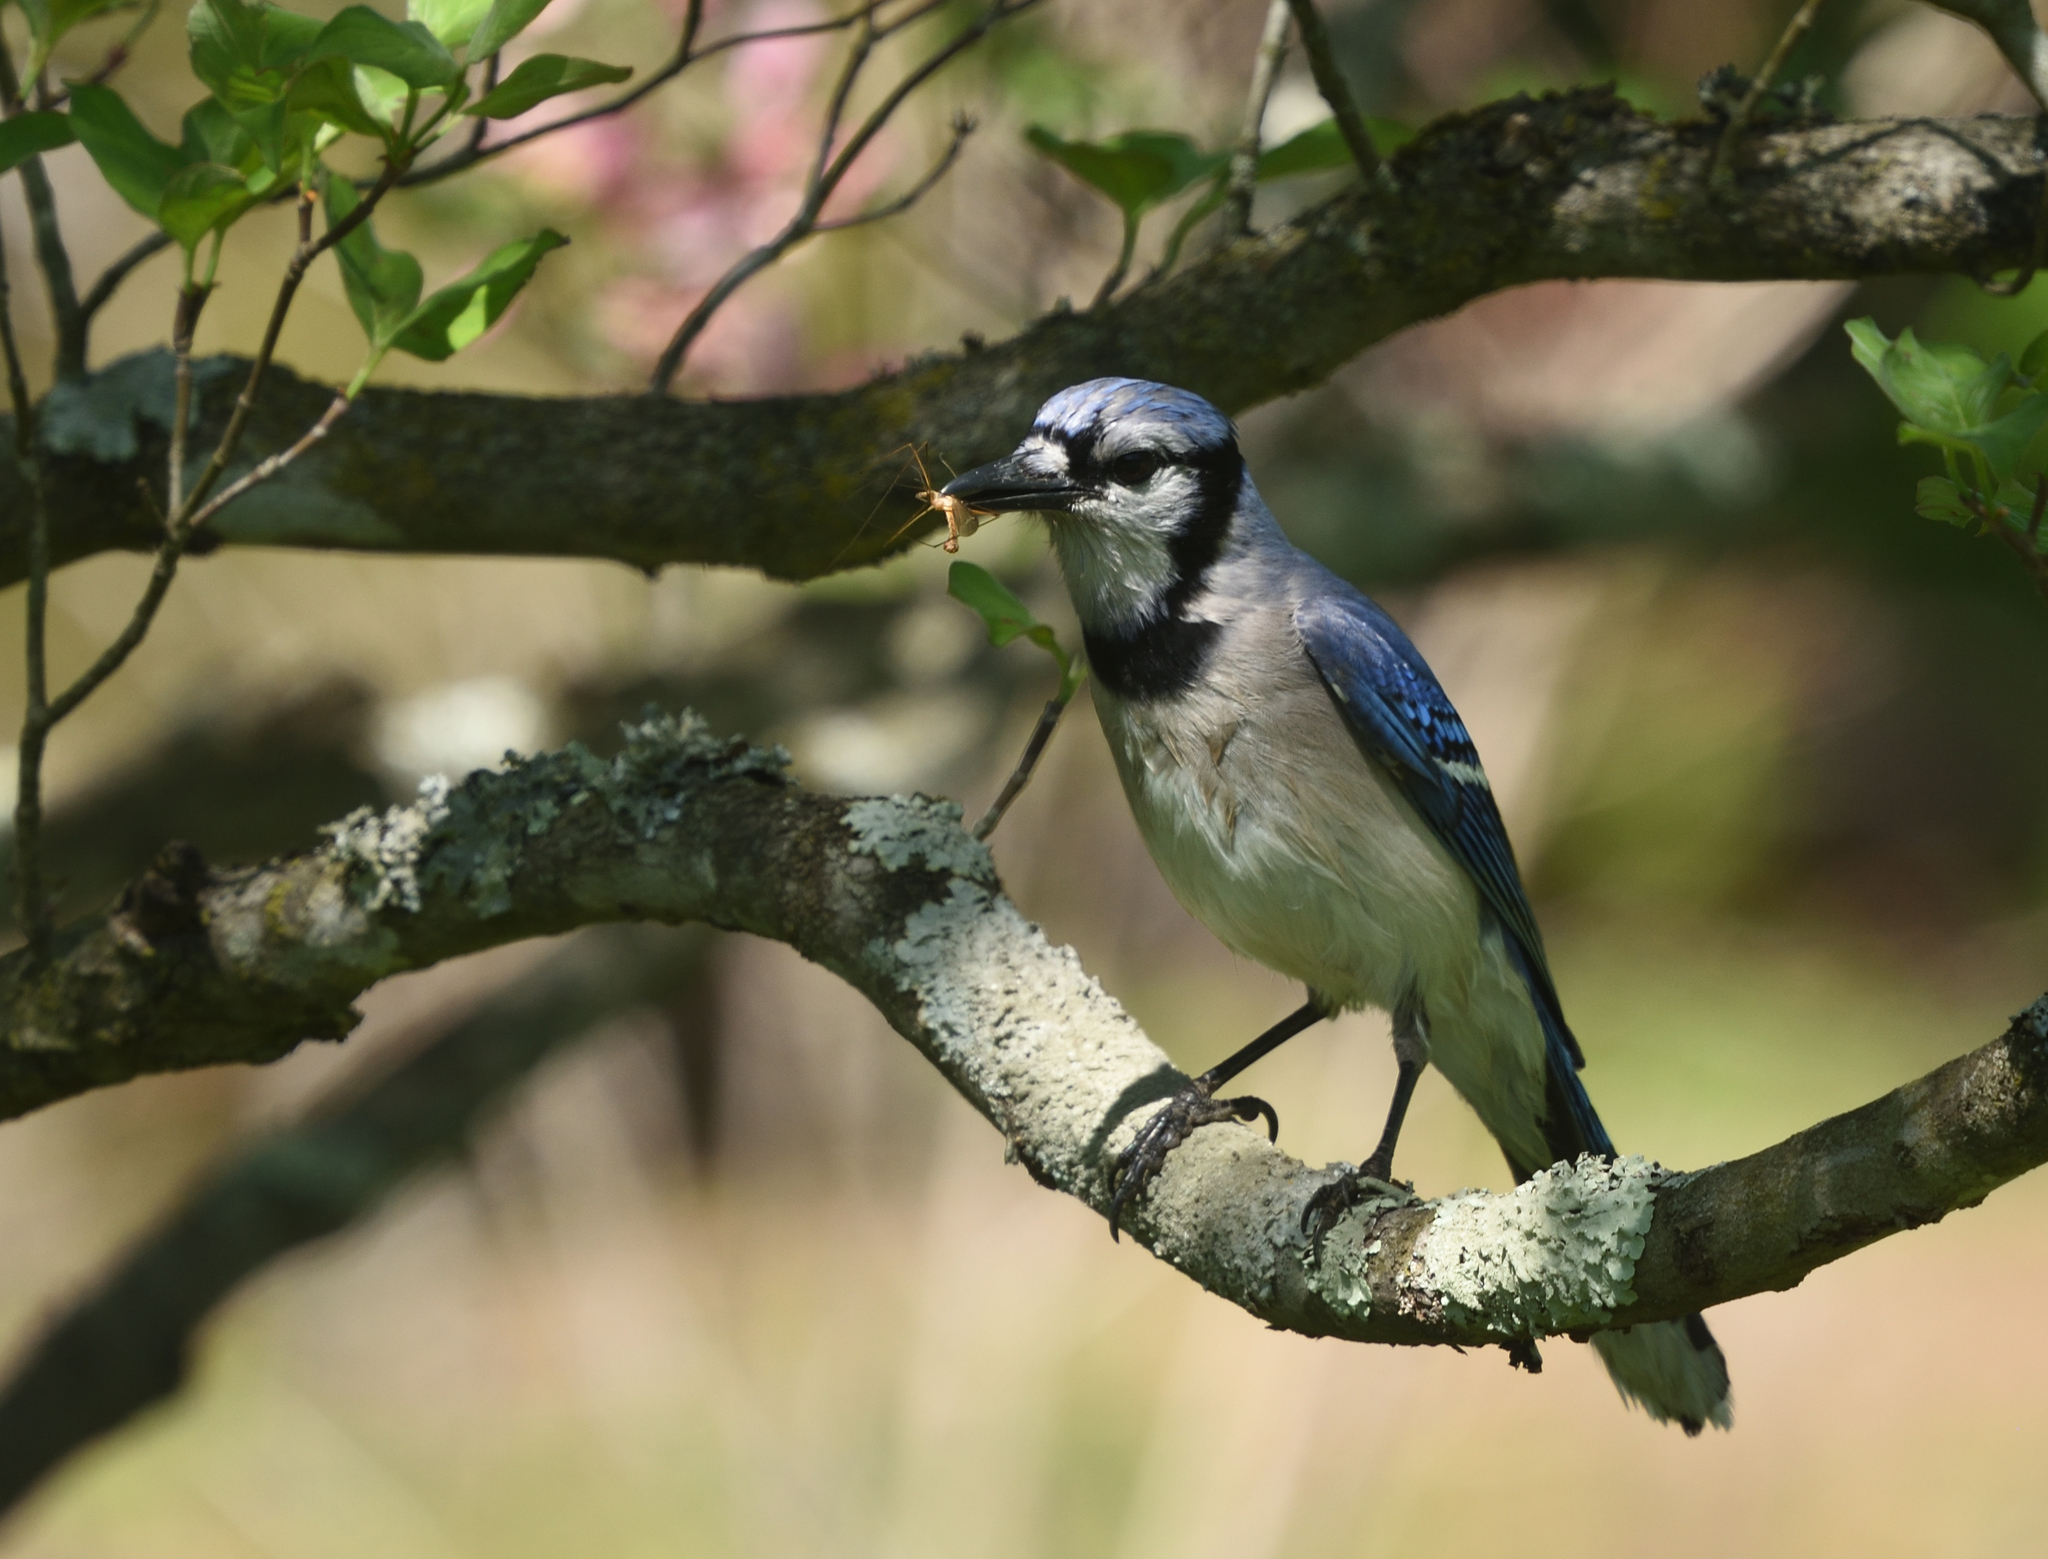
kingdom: Animalia
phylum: Chordata
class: Aves
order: Passeriformes
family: Corvidae
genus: Cyanocitta
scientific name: Cyanocitta cristata
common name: Blue jay
